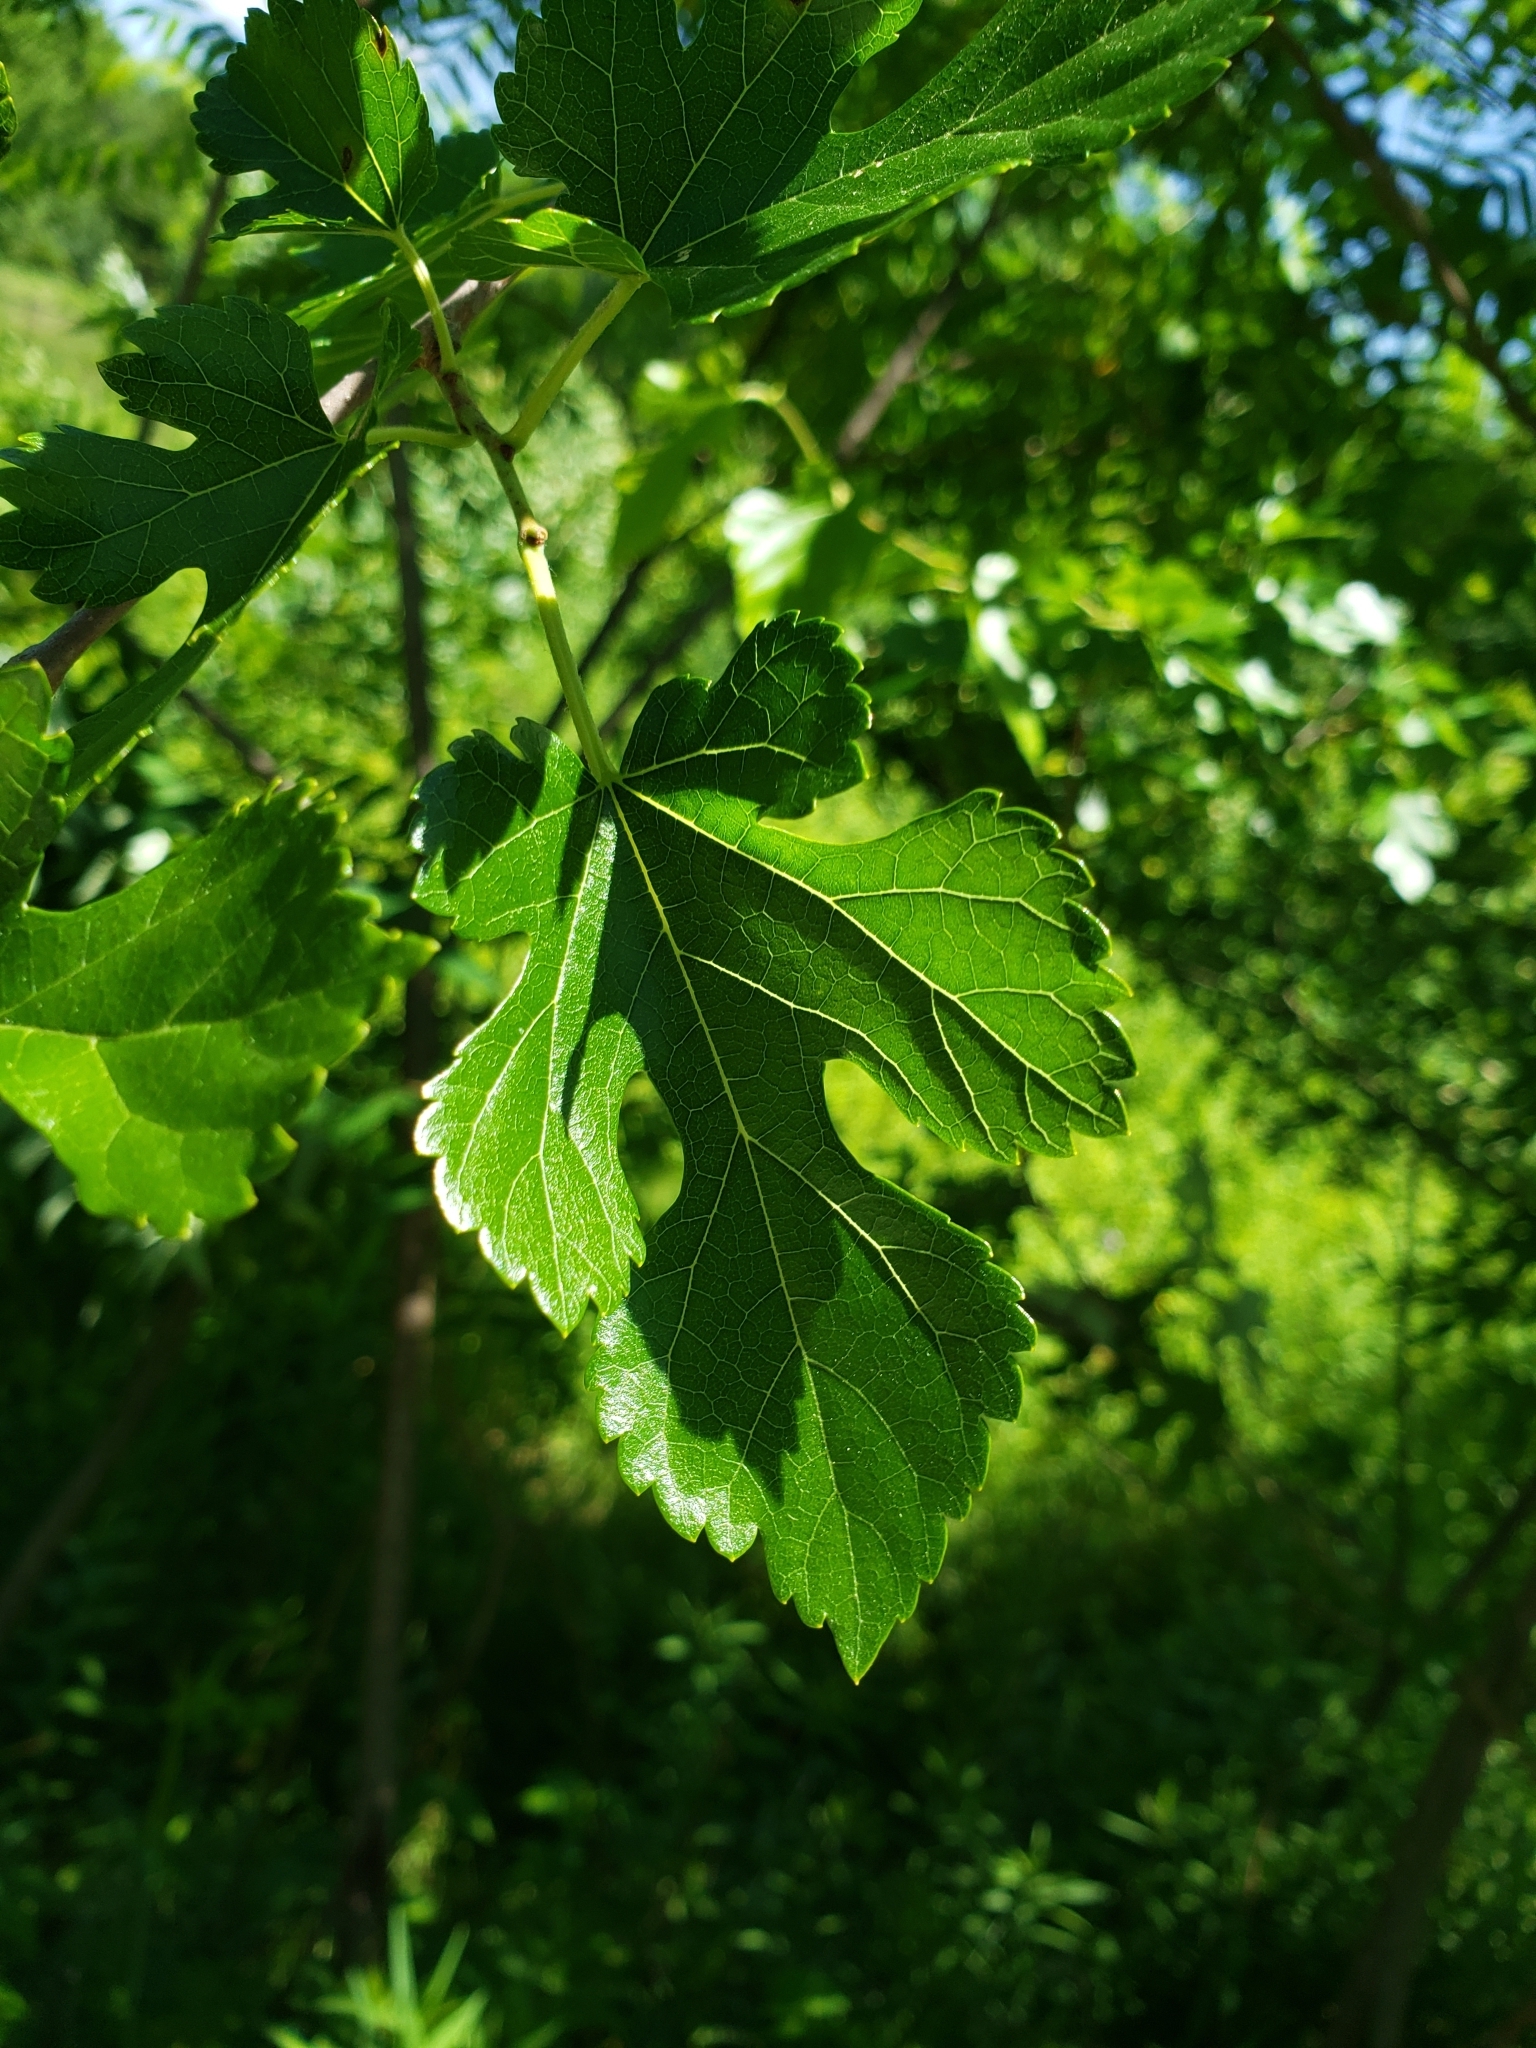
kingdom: Plantae
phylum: Tracheophyta
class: Magnoliopsida
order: Rosales
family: Moraceae
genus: Morus
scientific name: Morus alba
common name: White mulberry
